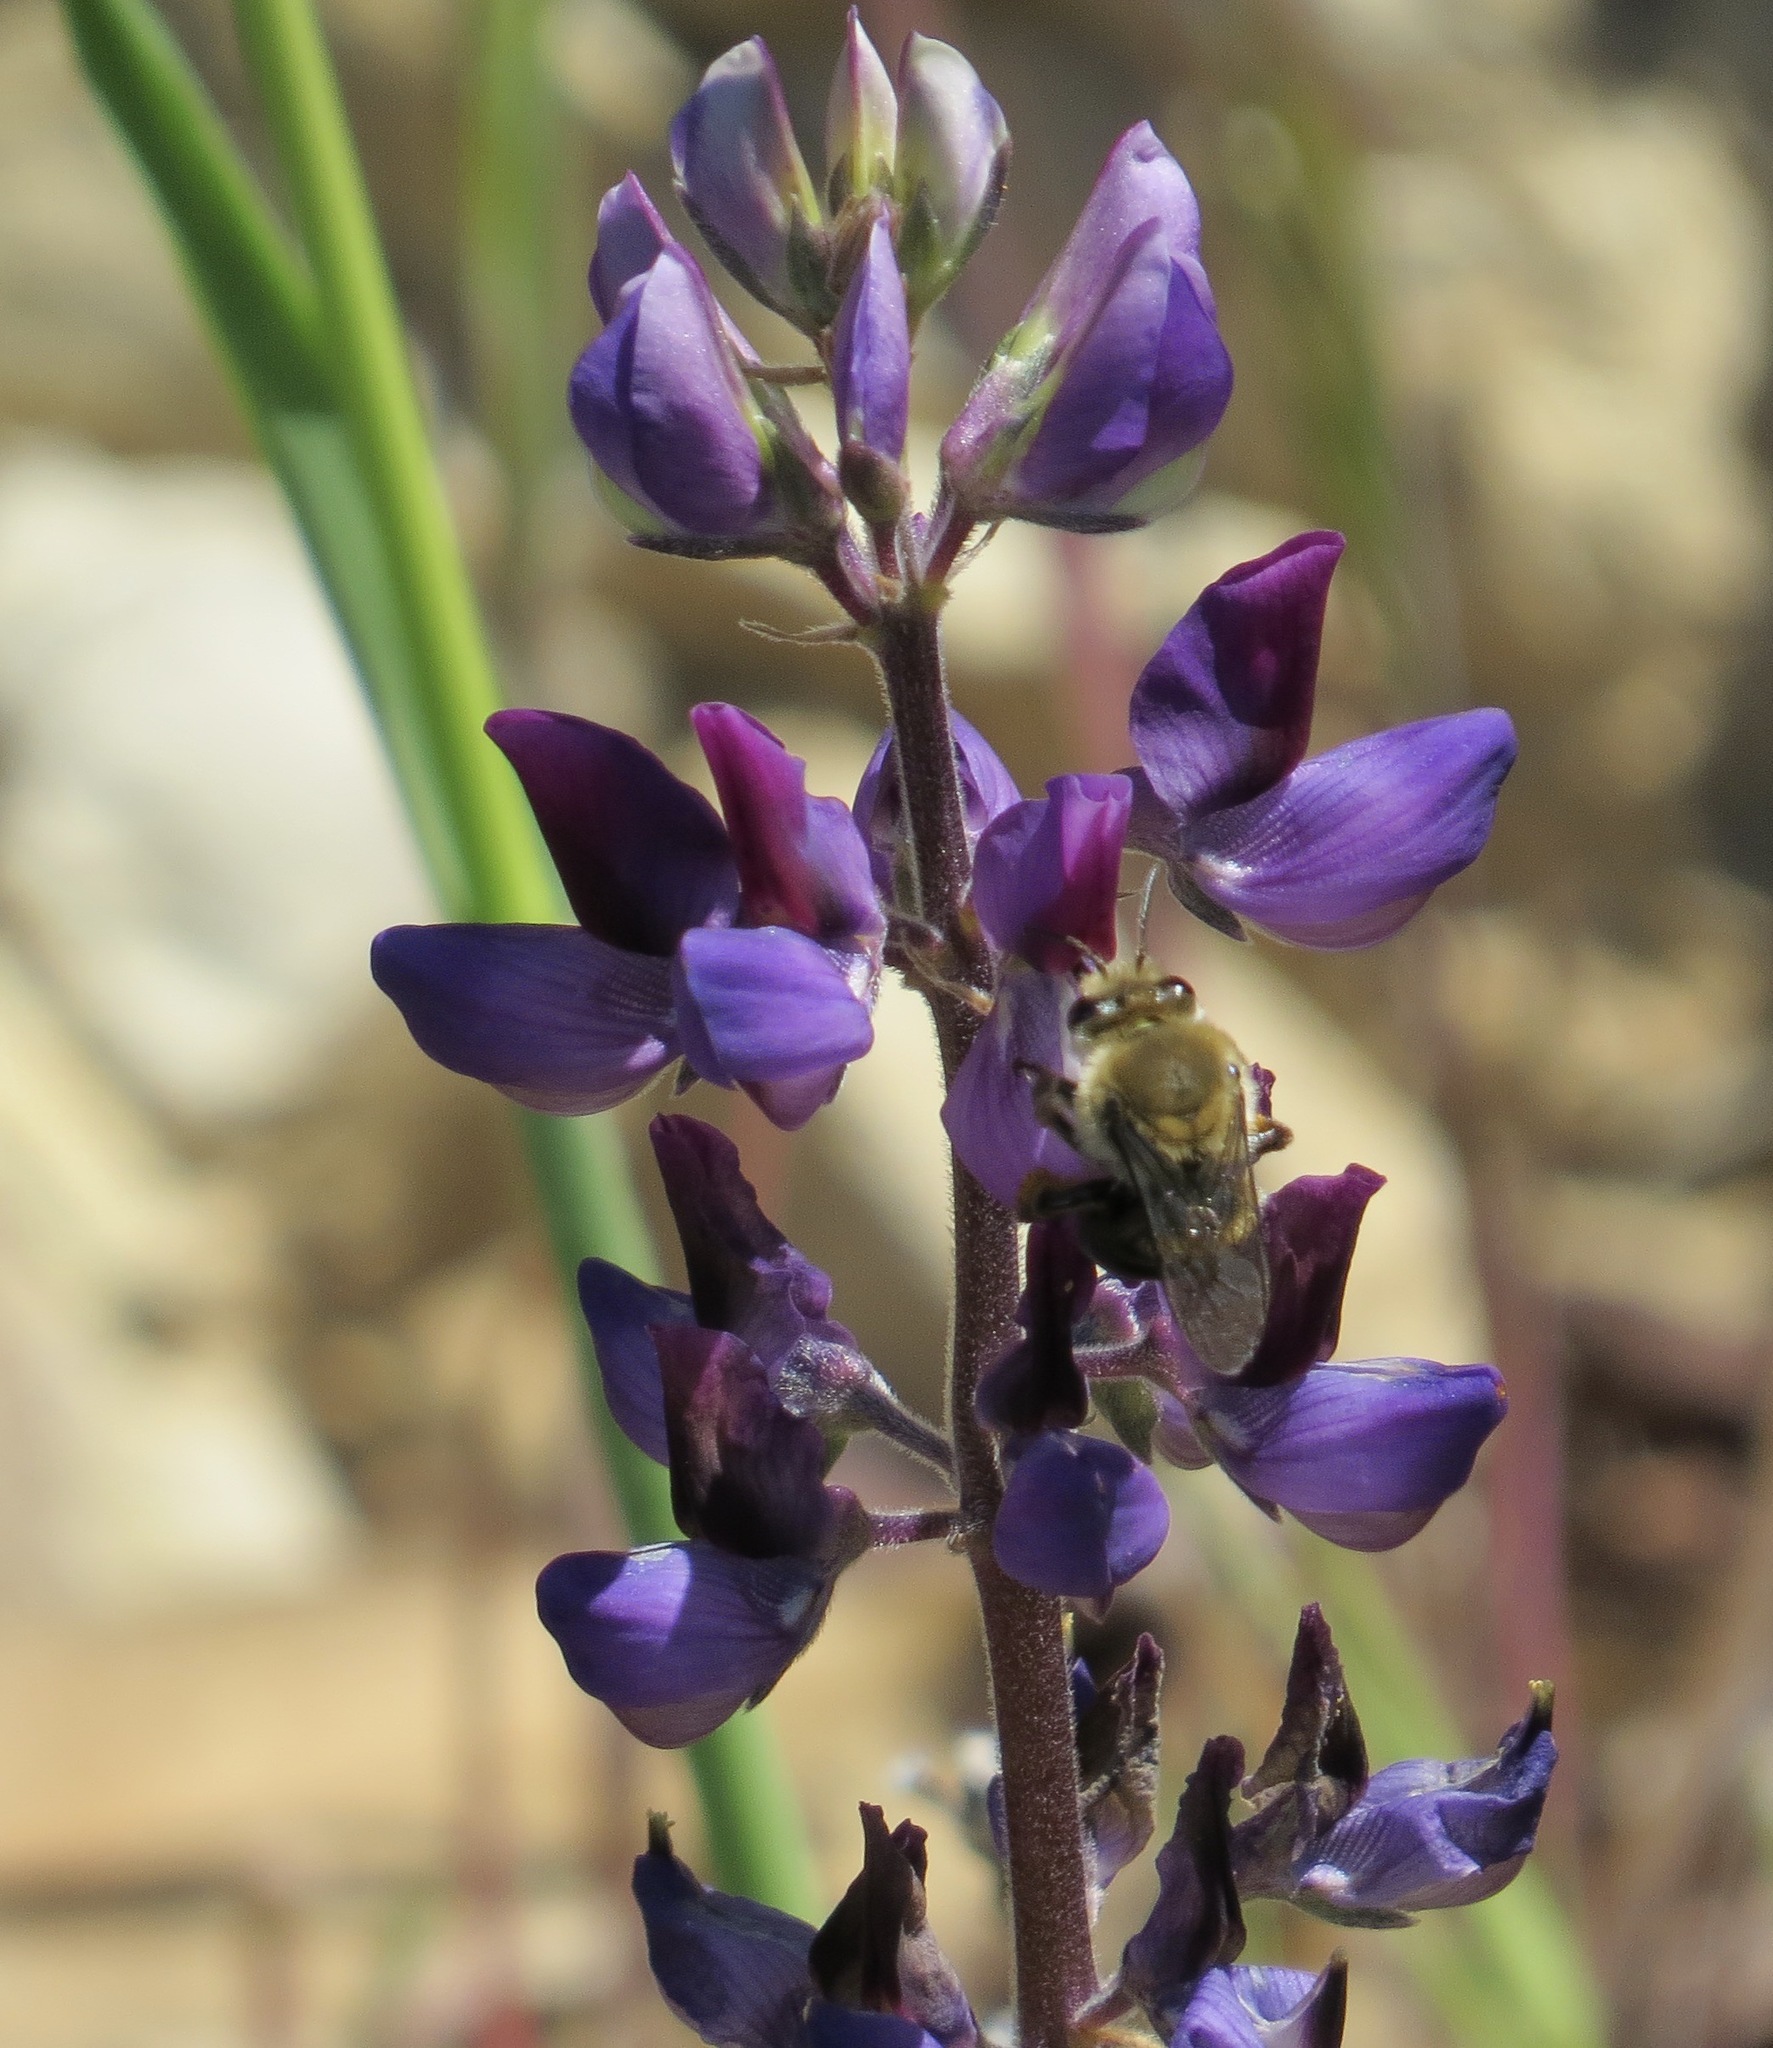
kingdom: Animalia
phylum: Arthropoda
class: Insecta
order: Hymenoptera
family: Apidae
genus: Eucera
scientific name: Eucera frater
